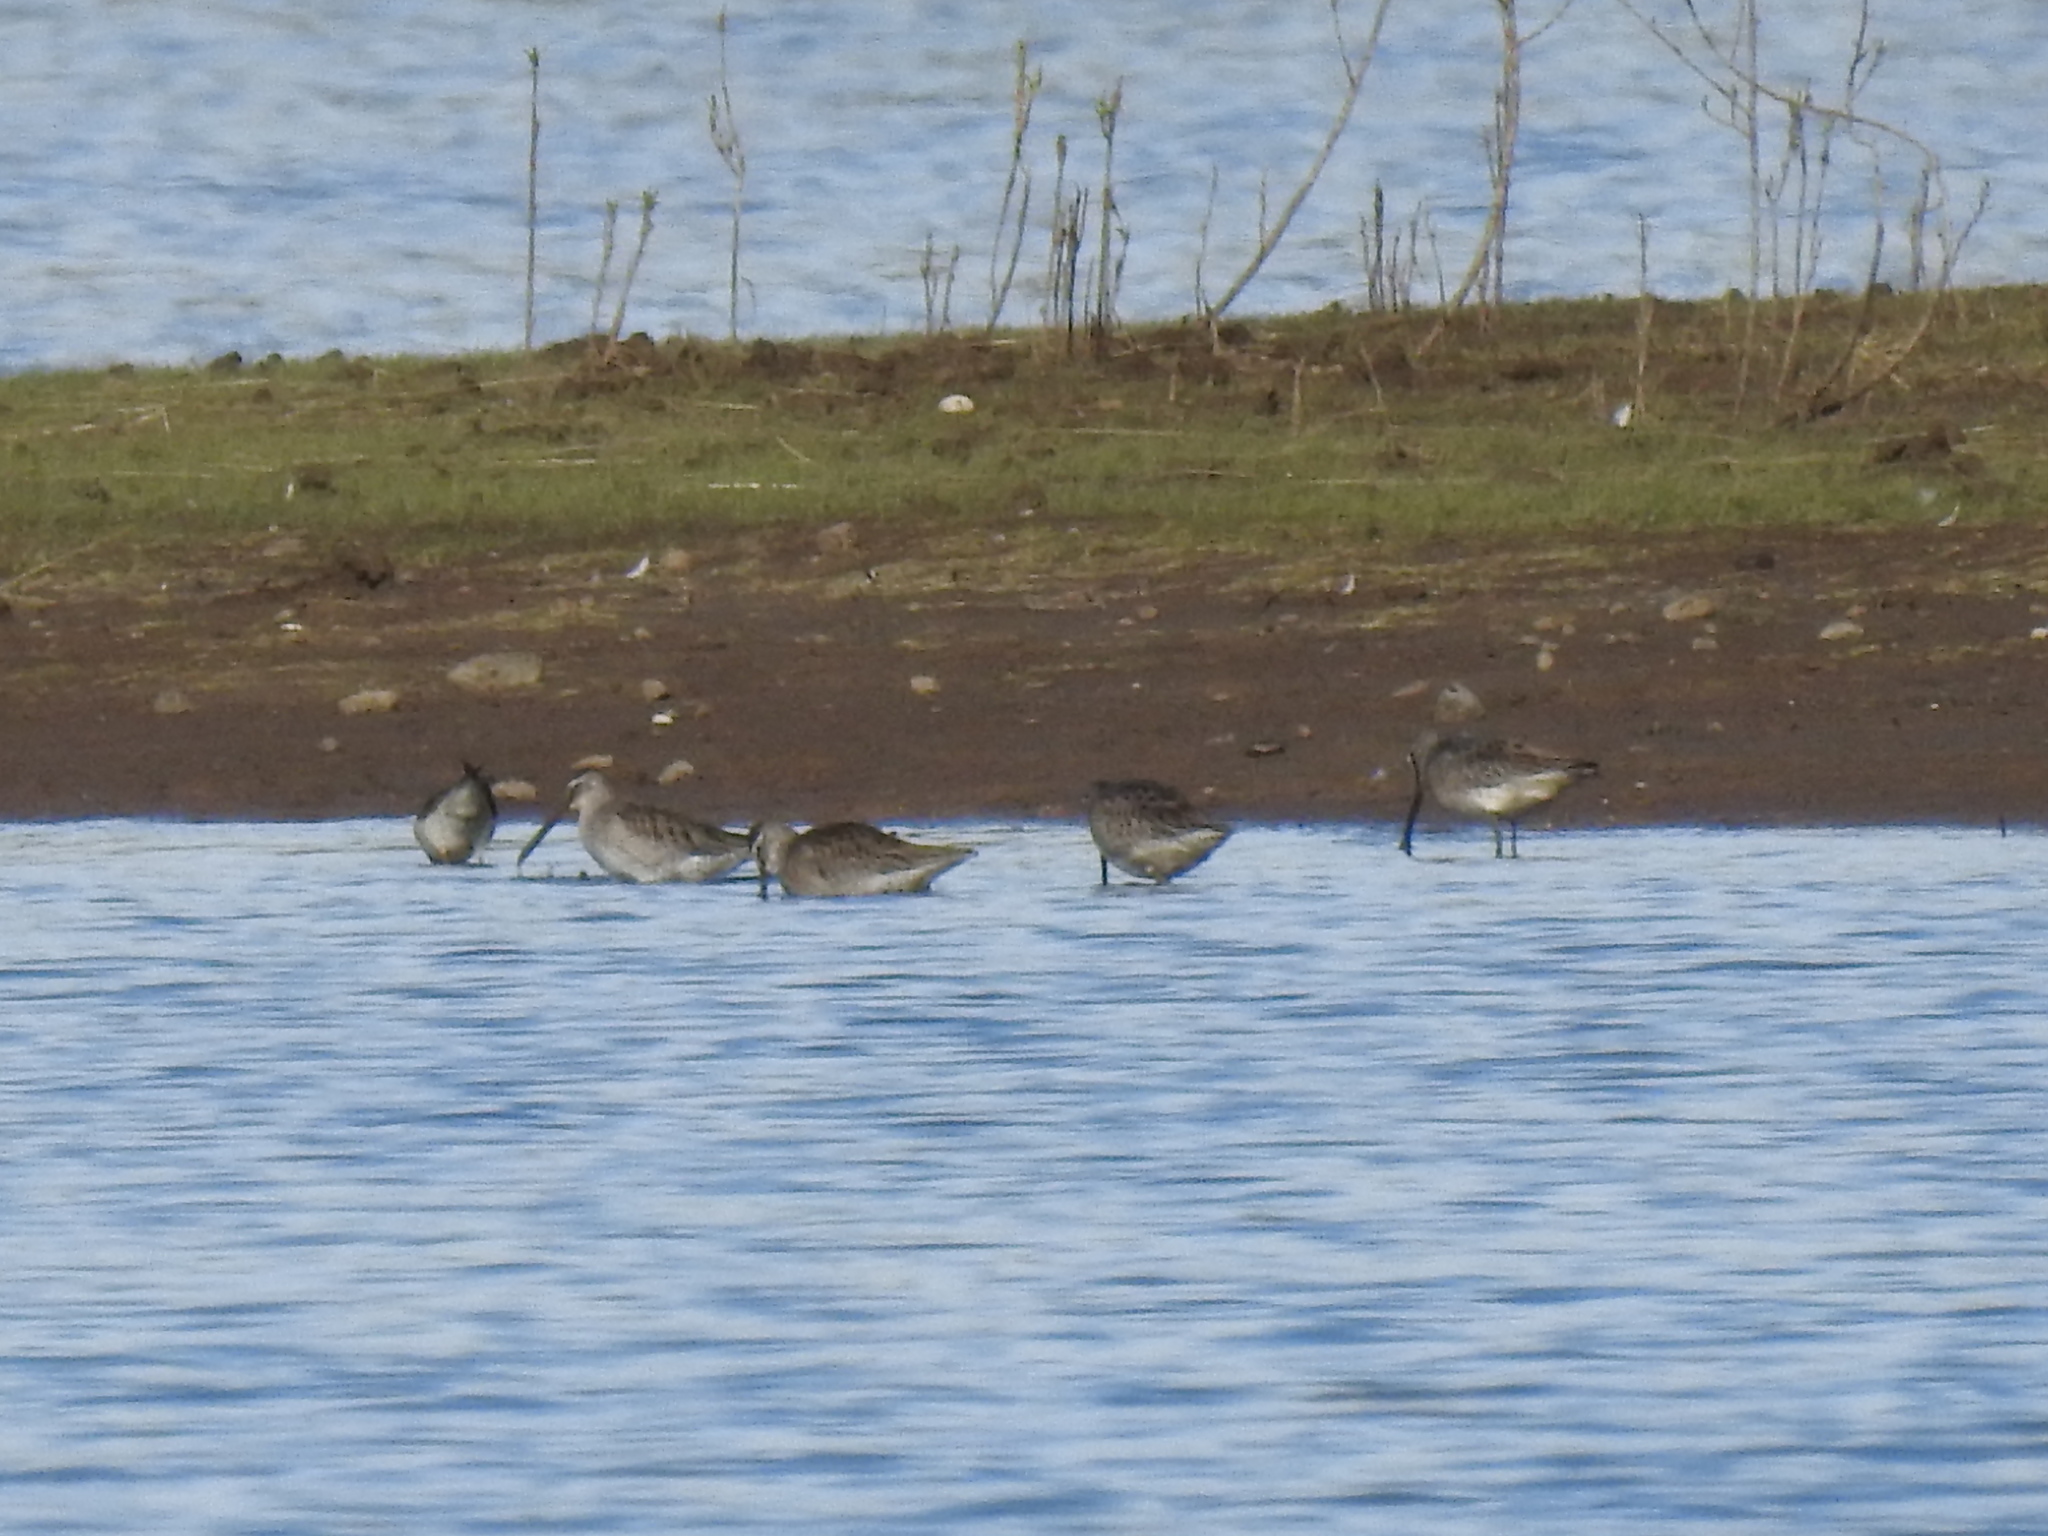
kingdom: Animalia
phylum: Chordata
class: Aves
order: Charadriiformes
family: Scolopacidae
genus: Limnodromus
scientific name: Limnodromus scolopaceus
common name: Long-billed dowitcher
